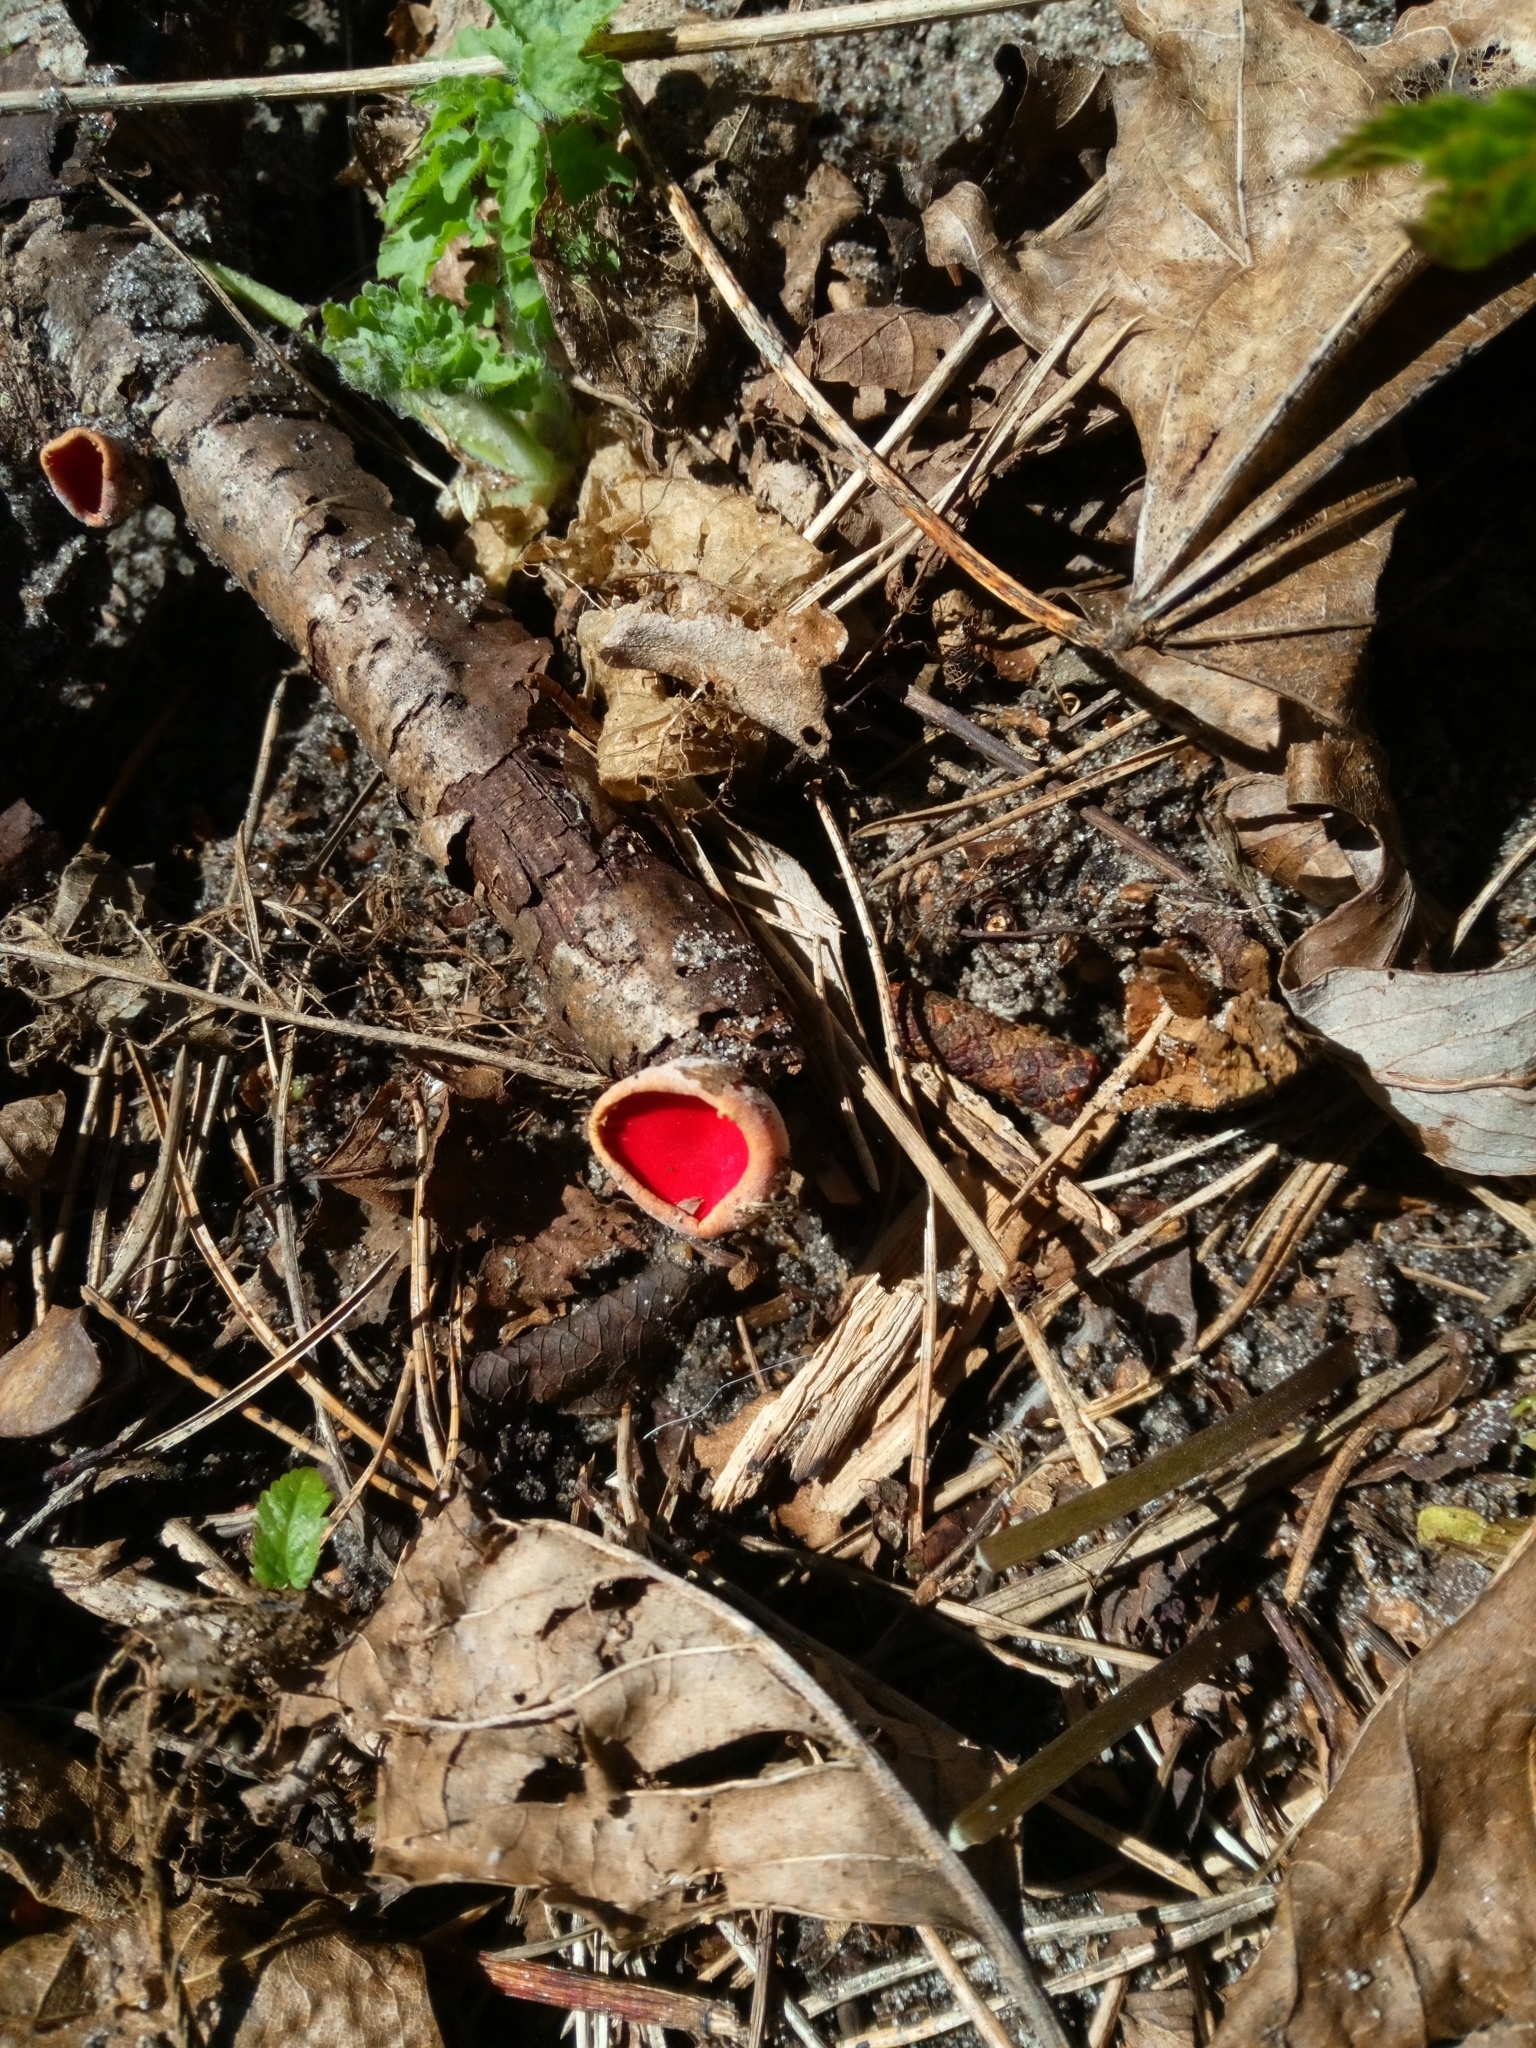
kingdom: Fungi
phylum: Ascomycota
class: Pezizomycetes
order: Pezizales
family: Sarcoscyphaceae
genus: Sarcoscypha
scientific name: Sarcoscypha
